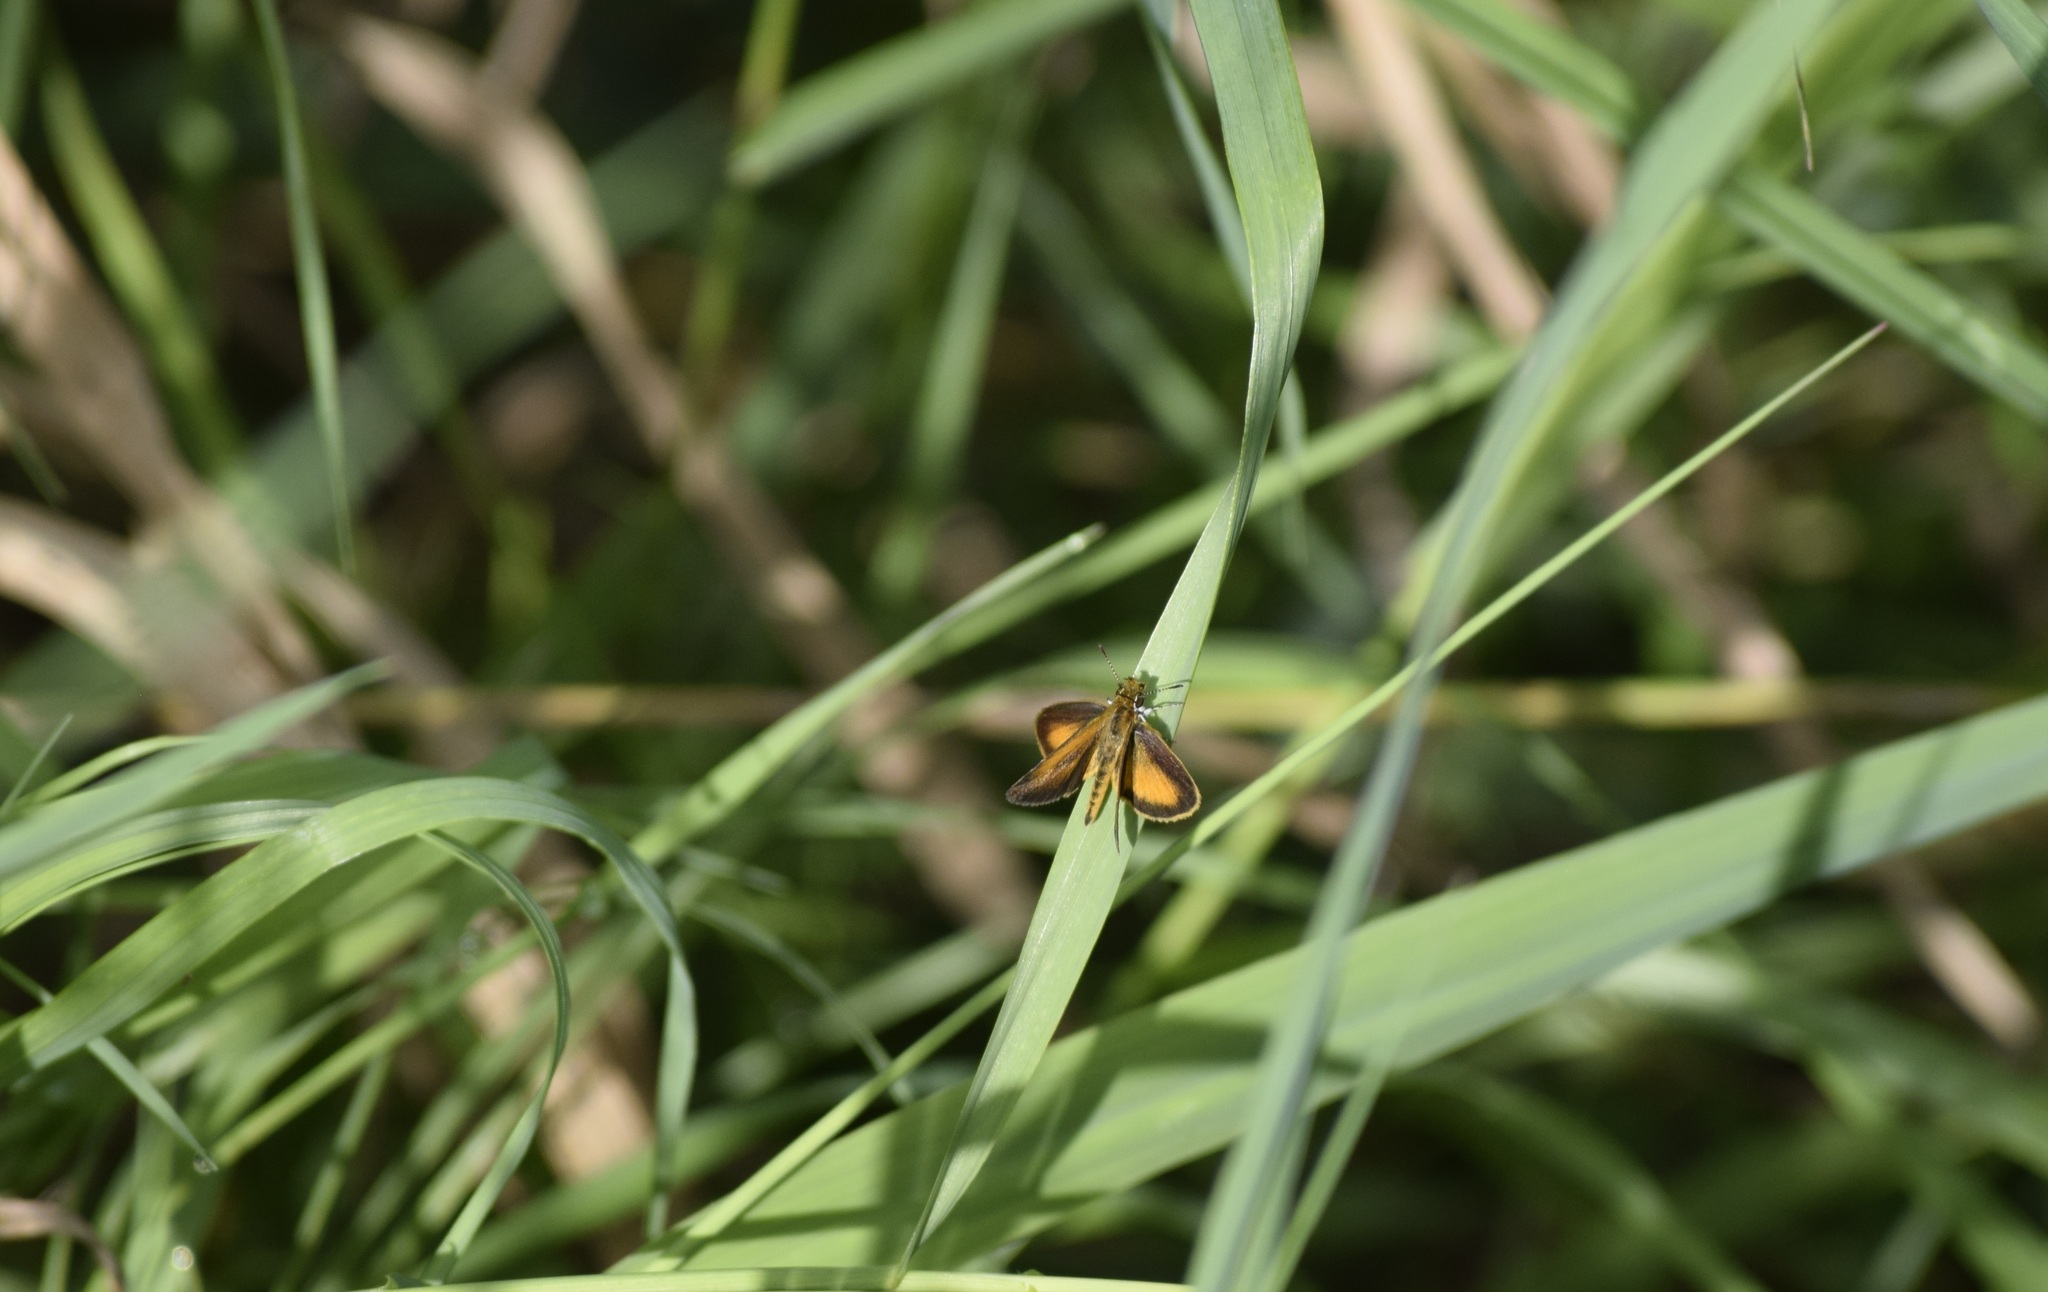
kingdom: Animalia
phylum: Arthropoda
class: Insecta
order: Lepidoptera
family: Hesperiidae
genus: Ancyloxypha
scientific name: Ancyloxypha numitor
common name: Least skipper
